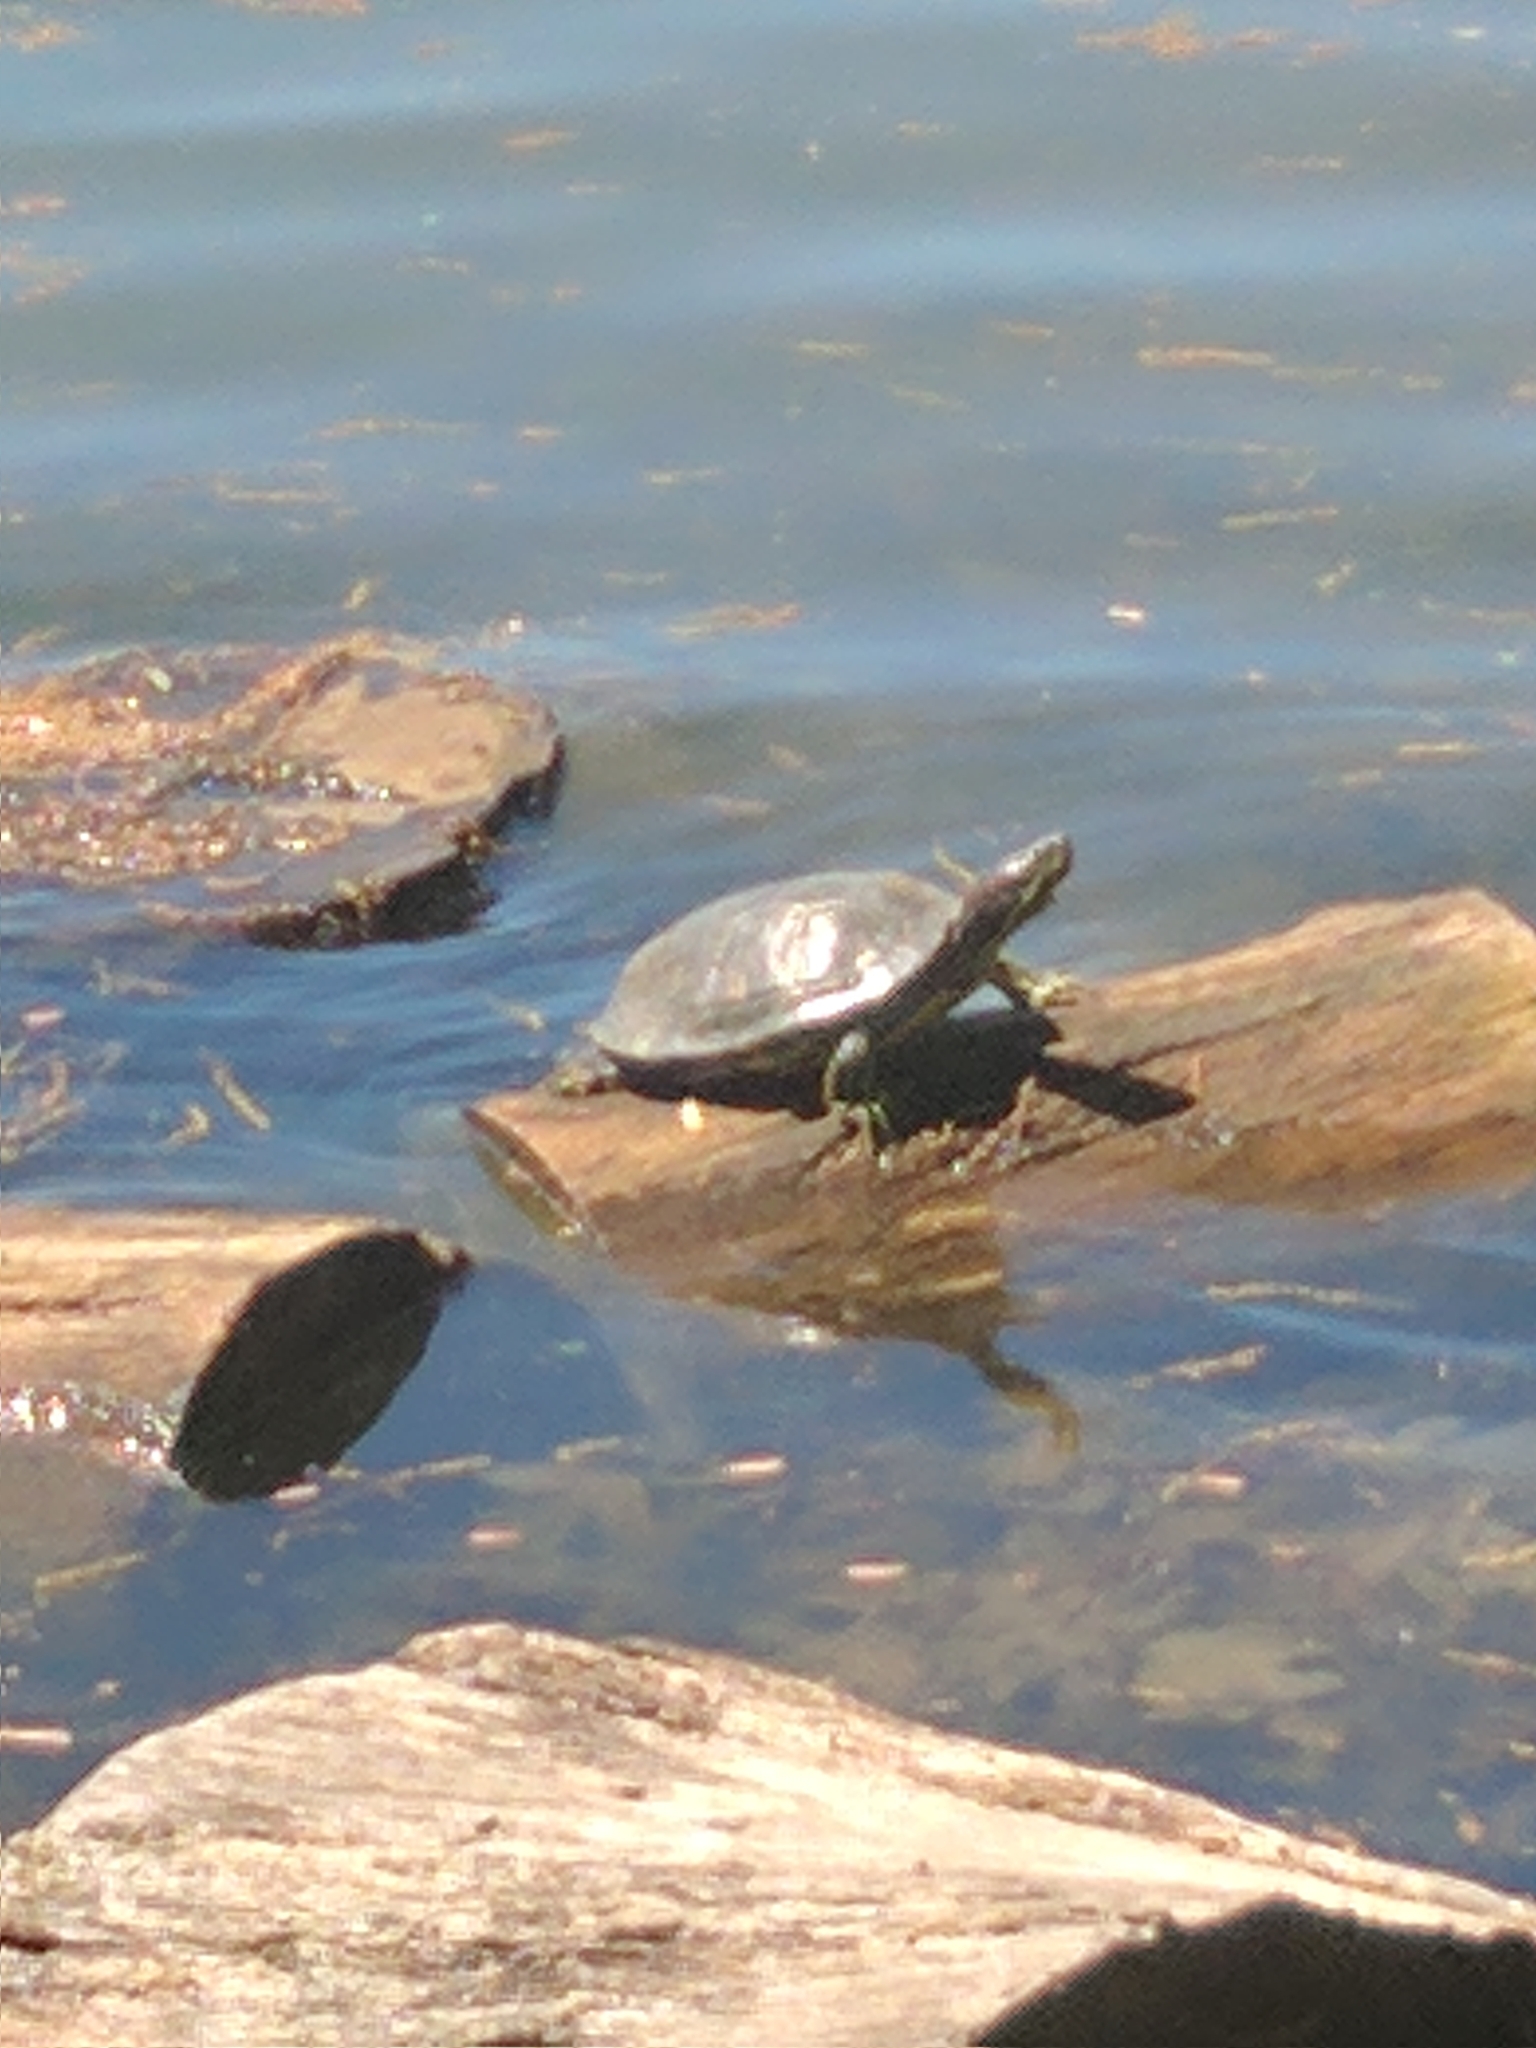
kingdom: Animalia
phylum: Chordata
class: Testudines
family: Emydidae
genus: Trachemys
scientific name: Trachemys scripta
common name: Slider
